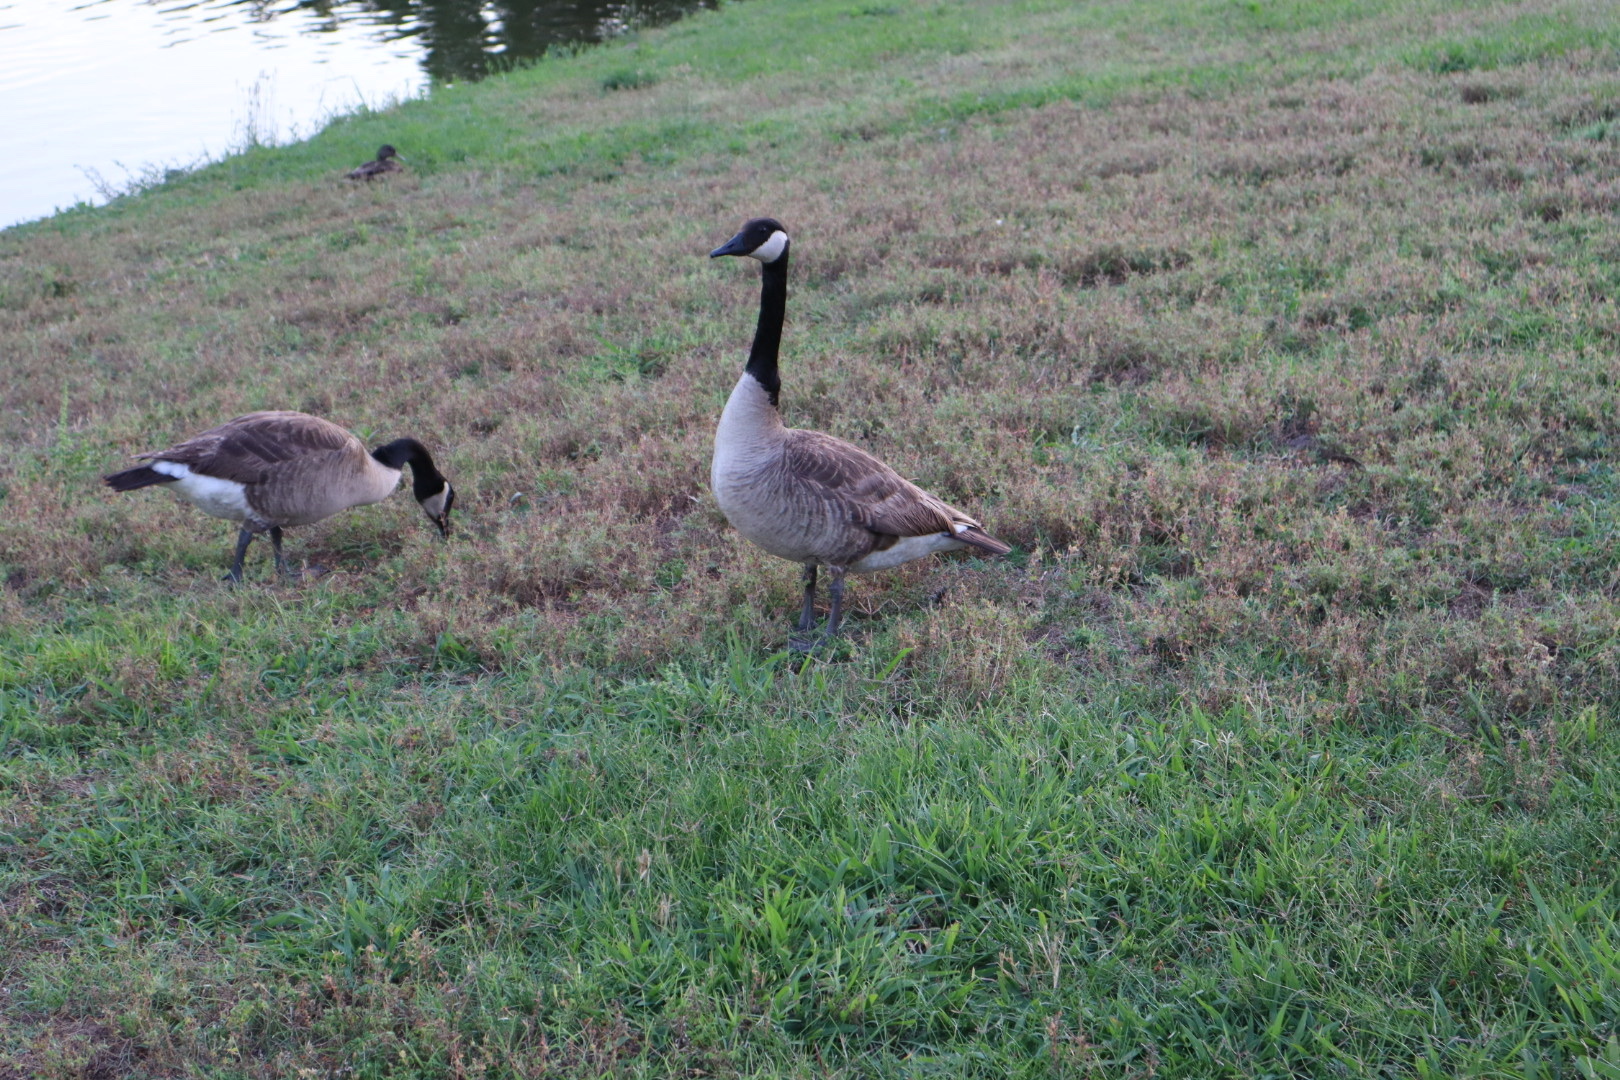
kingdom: Animalia
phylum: Chordata
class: Aves
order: Anseriformes
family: Anatidae
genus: Branta
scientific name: Branta canadensis
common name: Canada goose
